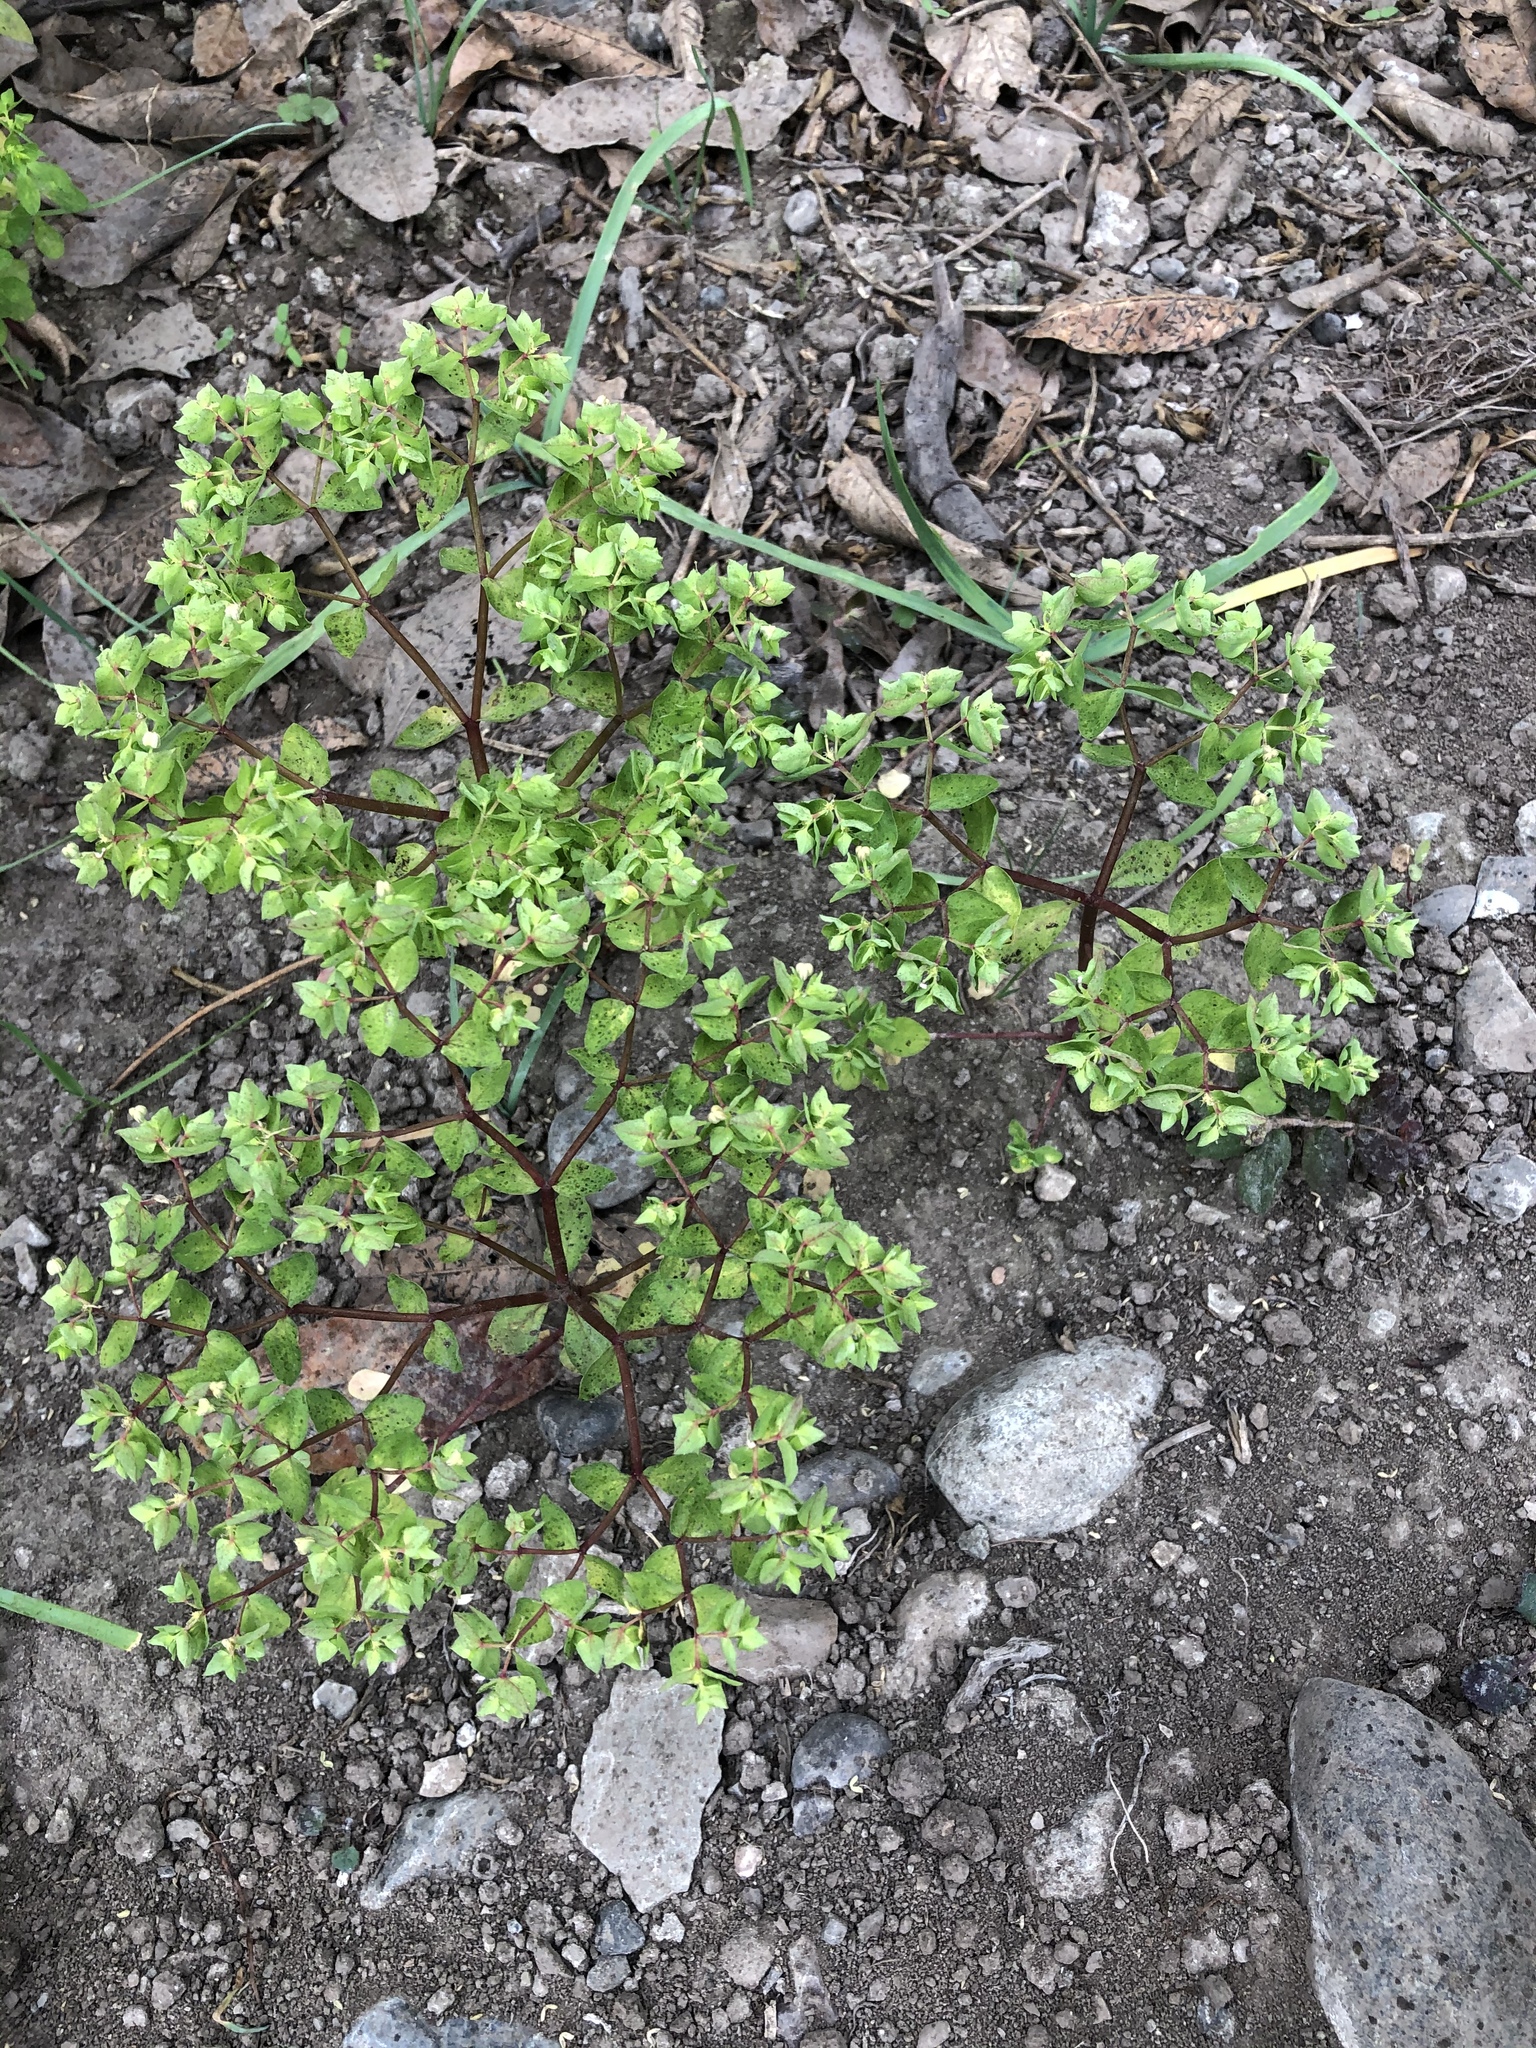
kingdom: Plantae
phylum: Tracheophyta
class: Magnoliopsida
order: Malpighiales
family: Euphorbiaceae
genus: Euphorbia
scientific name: Euphorbia peplus
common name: Petty spurge
